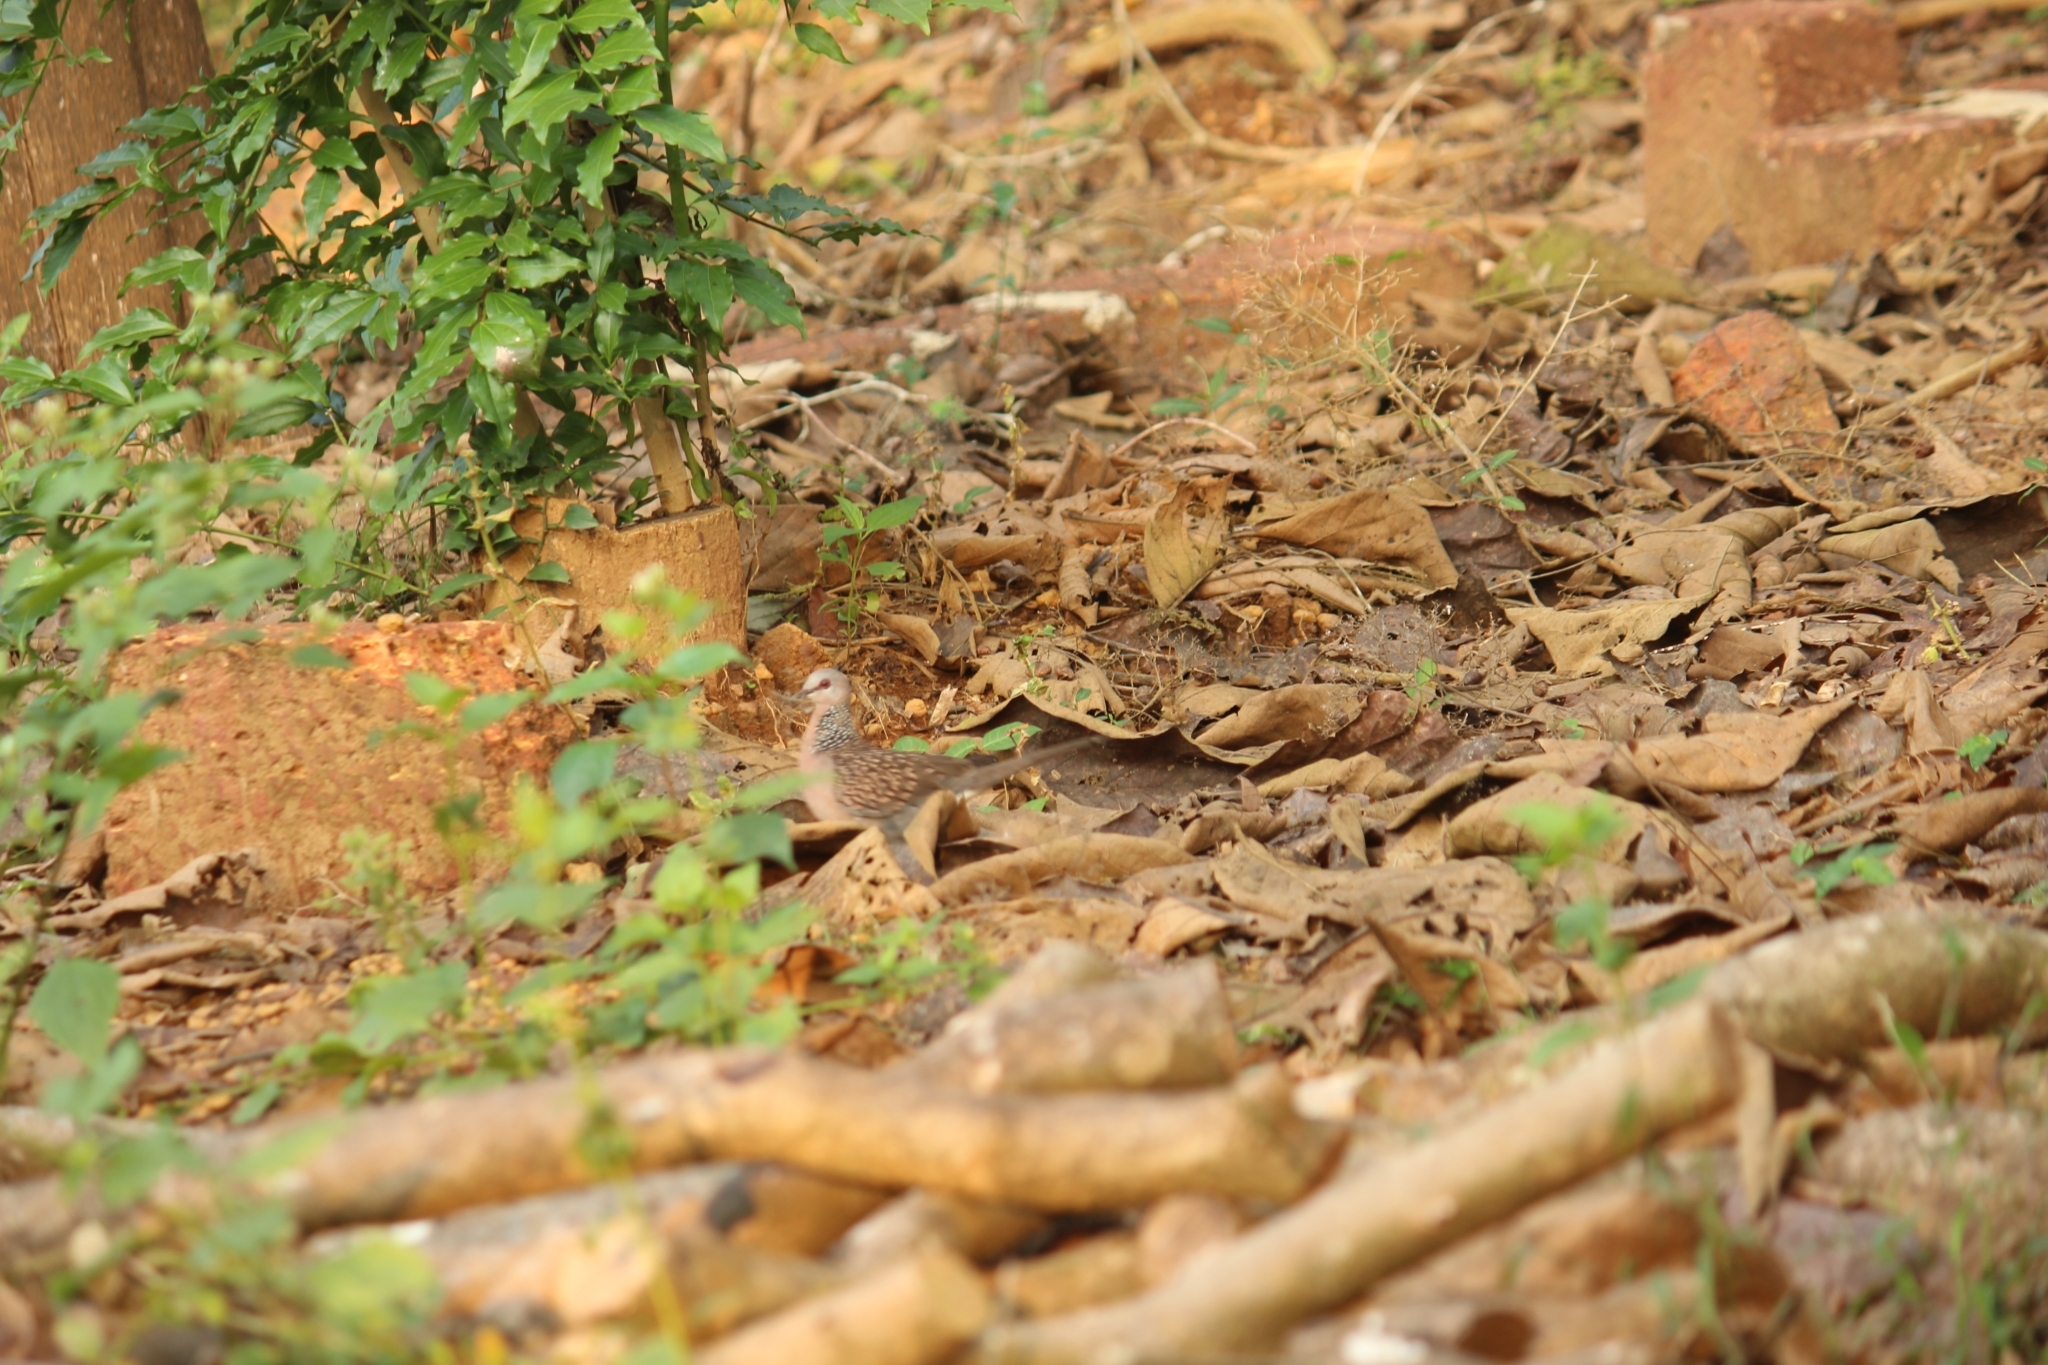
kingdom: Animalia
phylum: Chordata
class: Aves
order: Columbiformes
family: Columbidae
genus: Spilopelia
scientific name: Spilopelia chinensis
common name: Spotted dove
